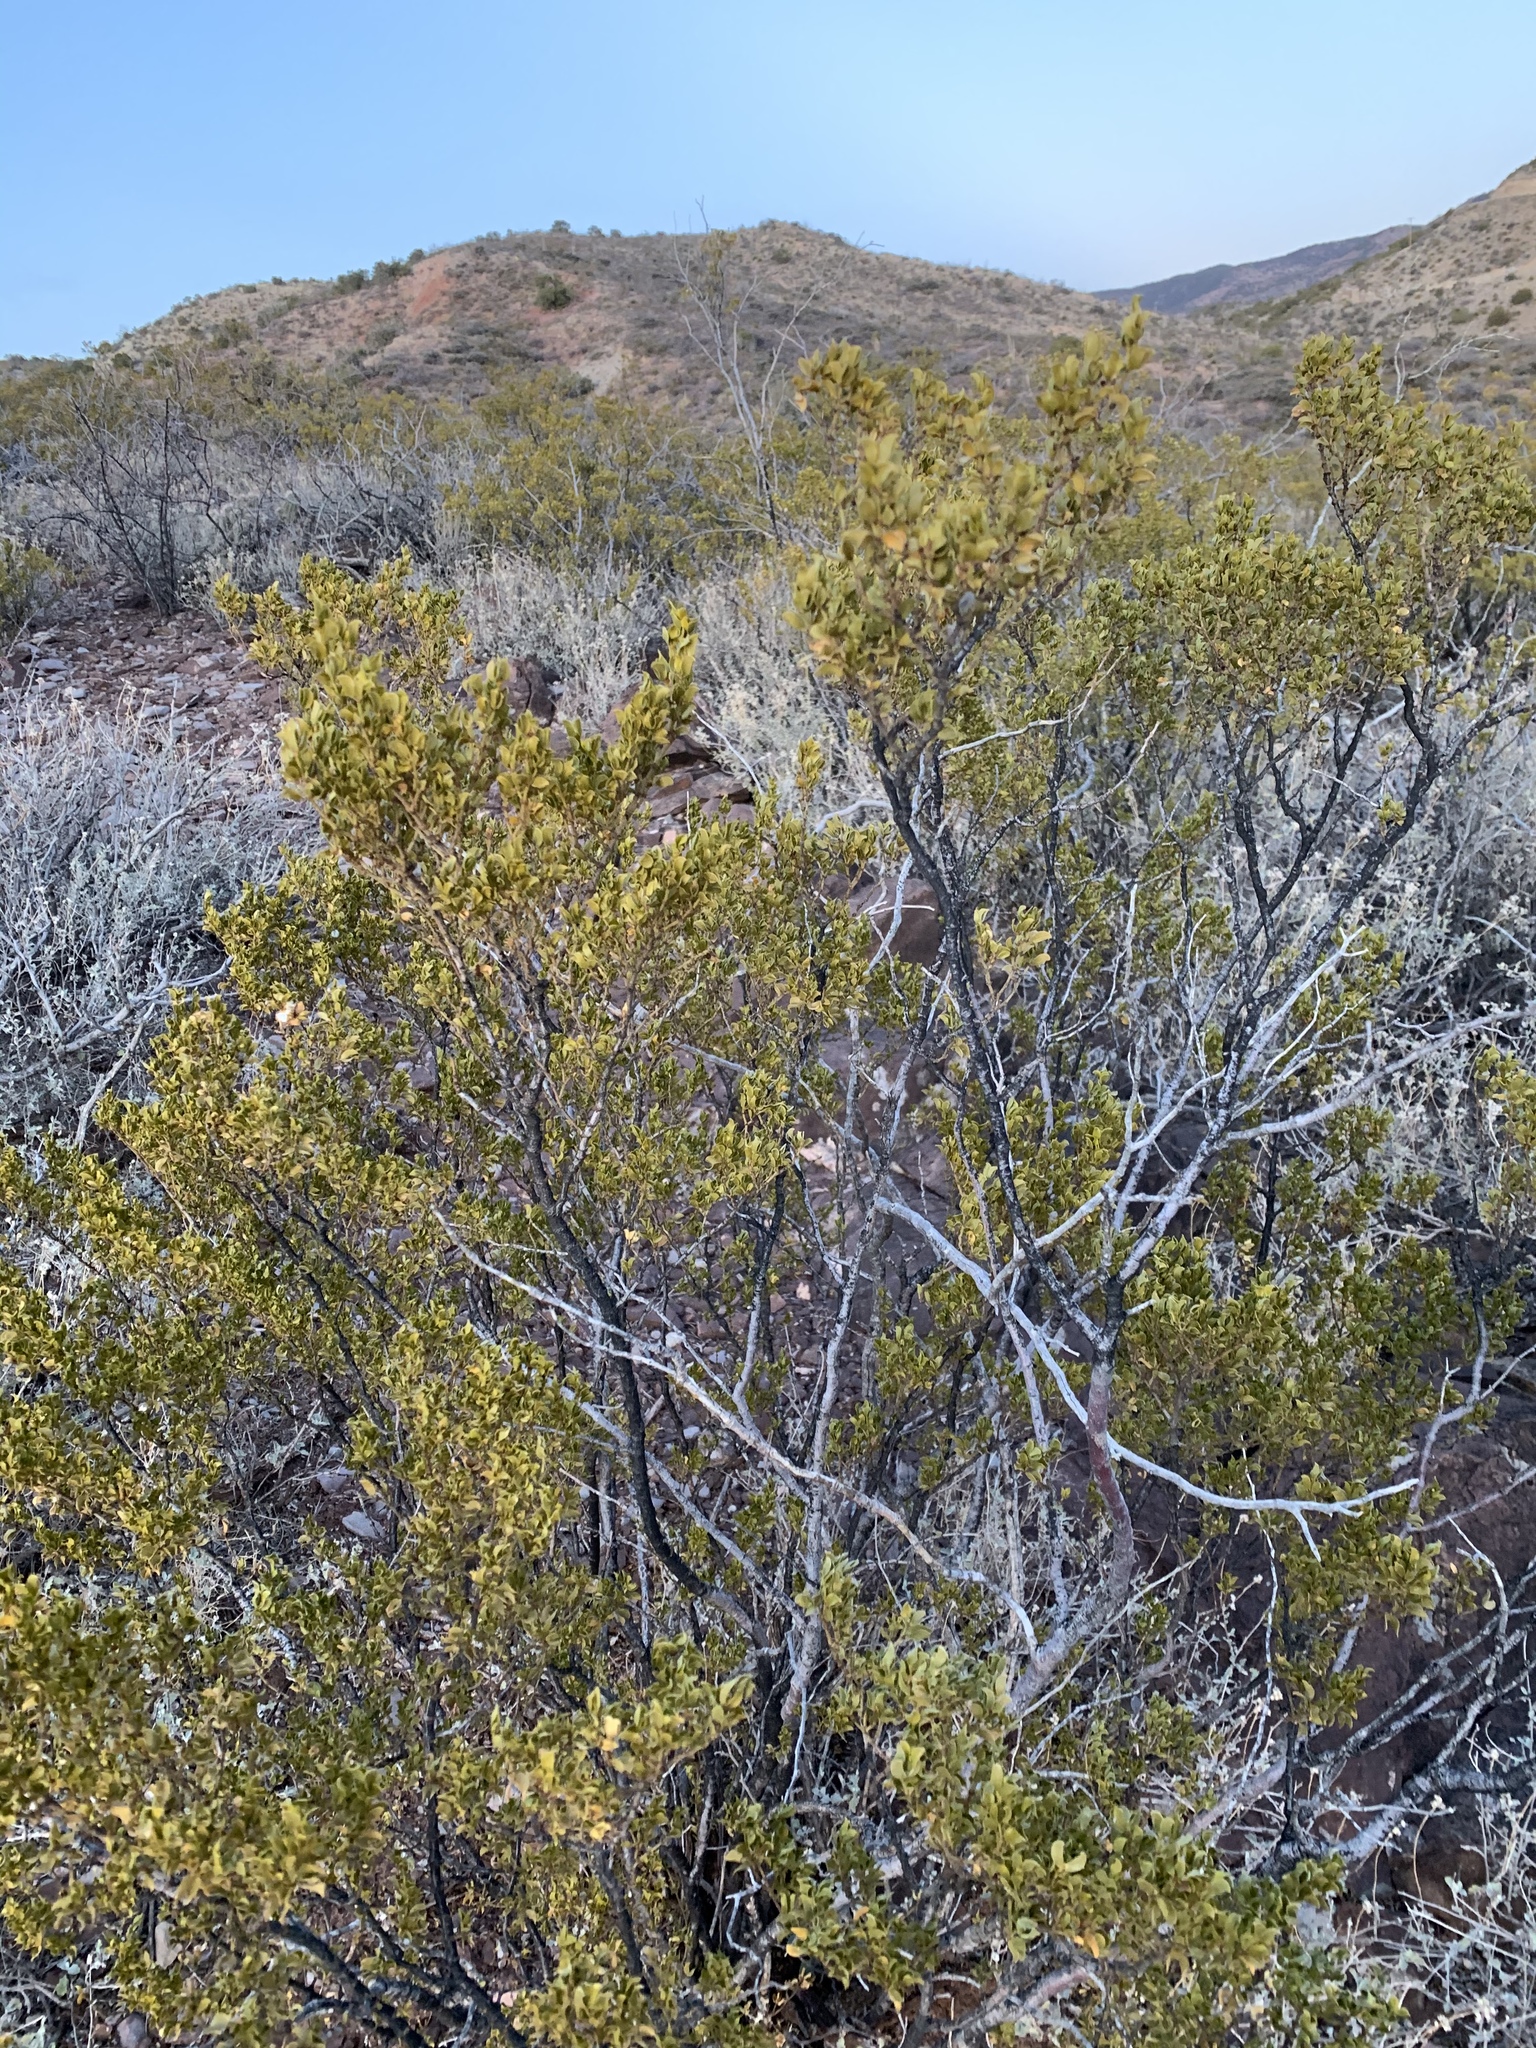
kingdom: Plantae
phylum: Tracheophyta
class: Magnoliopsida
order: Zygophyllales
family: Zygophyllaceae
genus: Larrea
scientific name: Larrea tridentata
